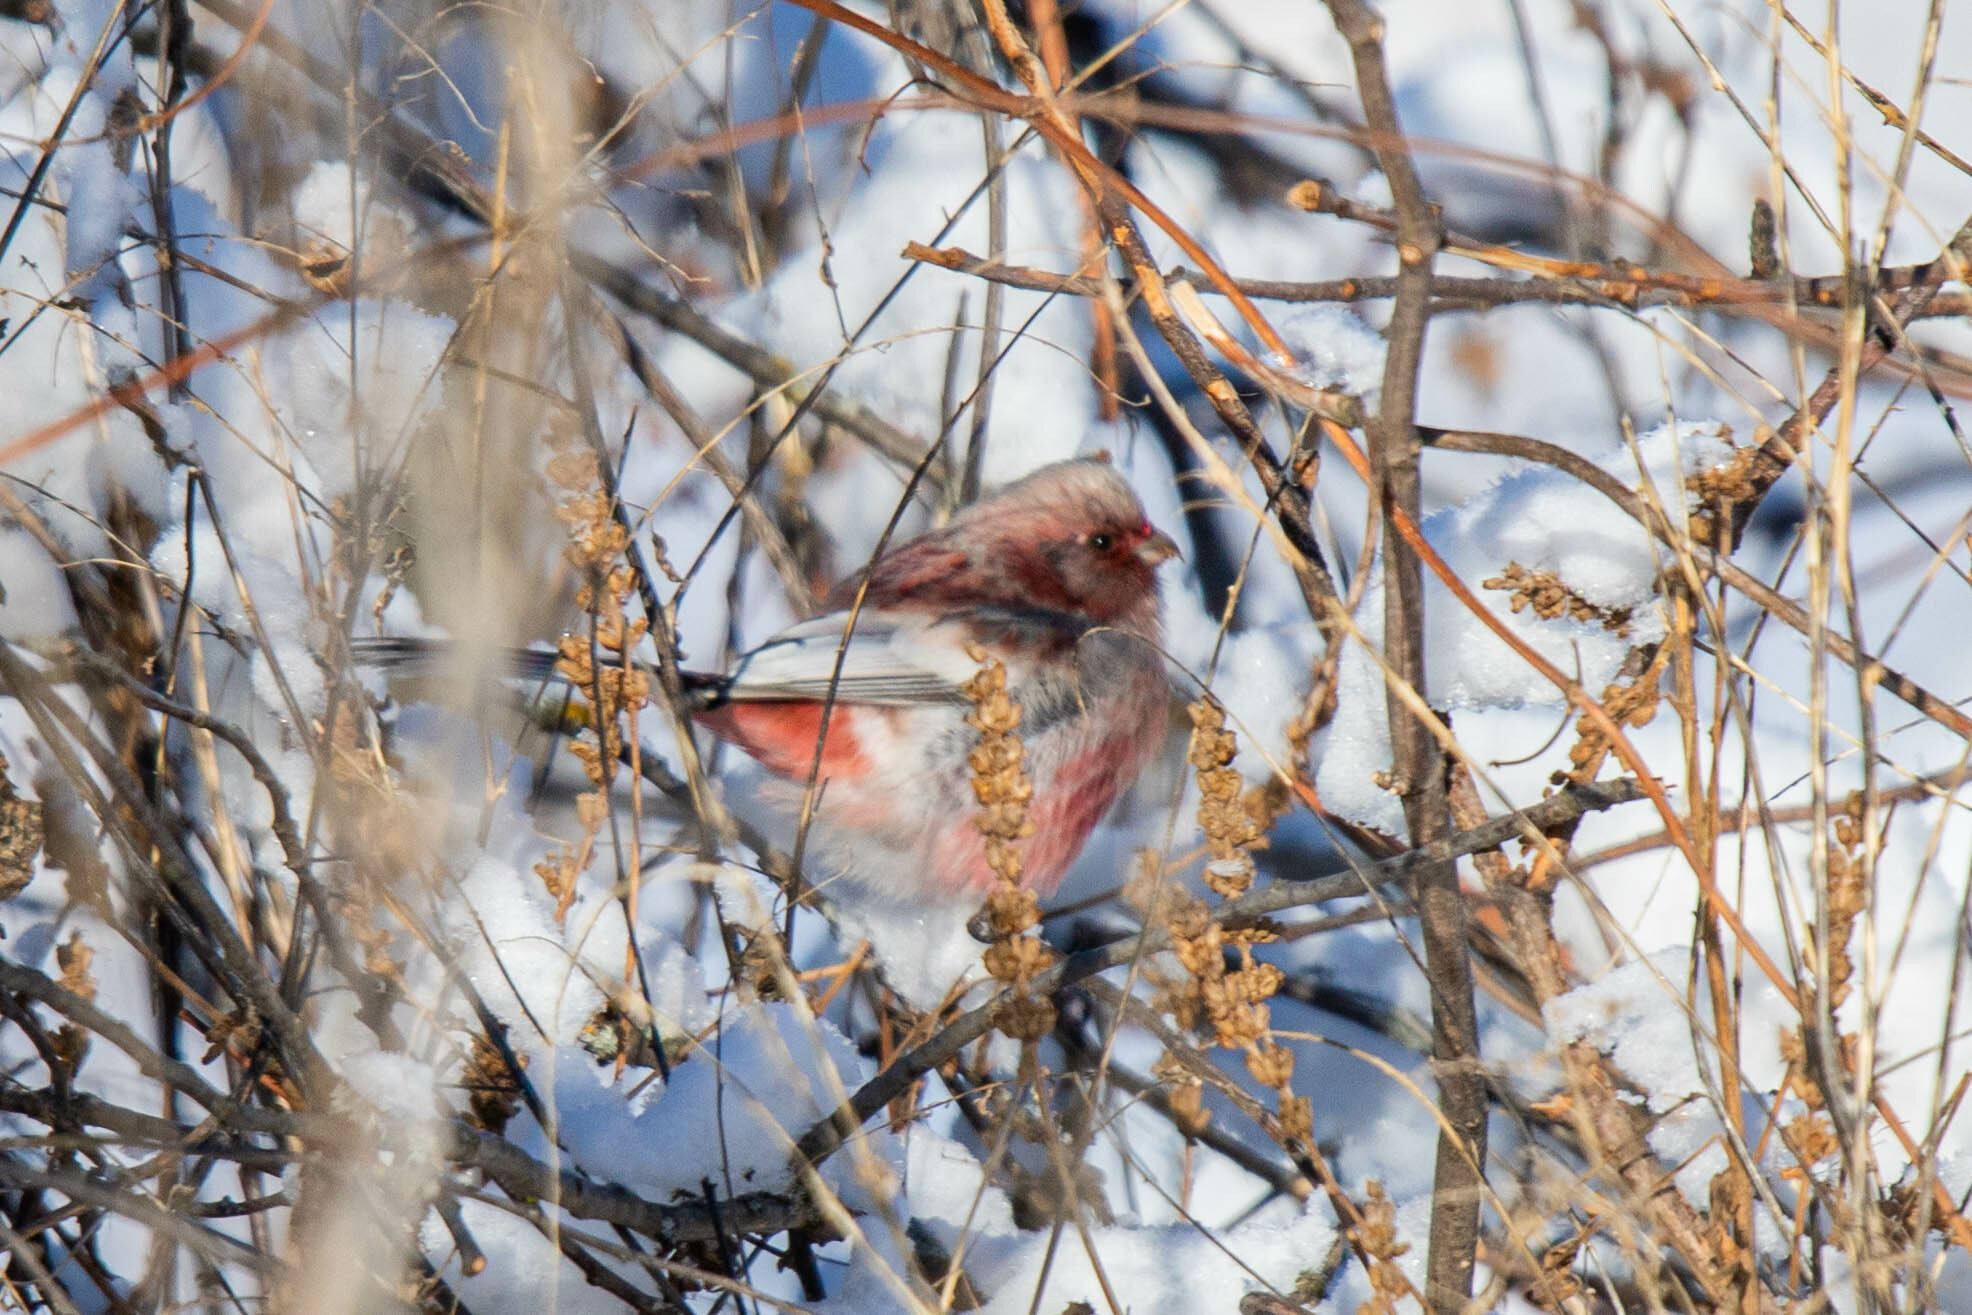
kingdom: Animalia
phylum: Chordata
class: Aves
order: Passeriformes
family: Fringillidae
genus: Carpodacus
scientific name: Carpodacus sibiricus
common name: Long-tailed rosefinch
